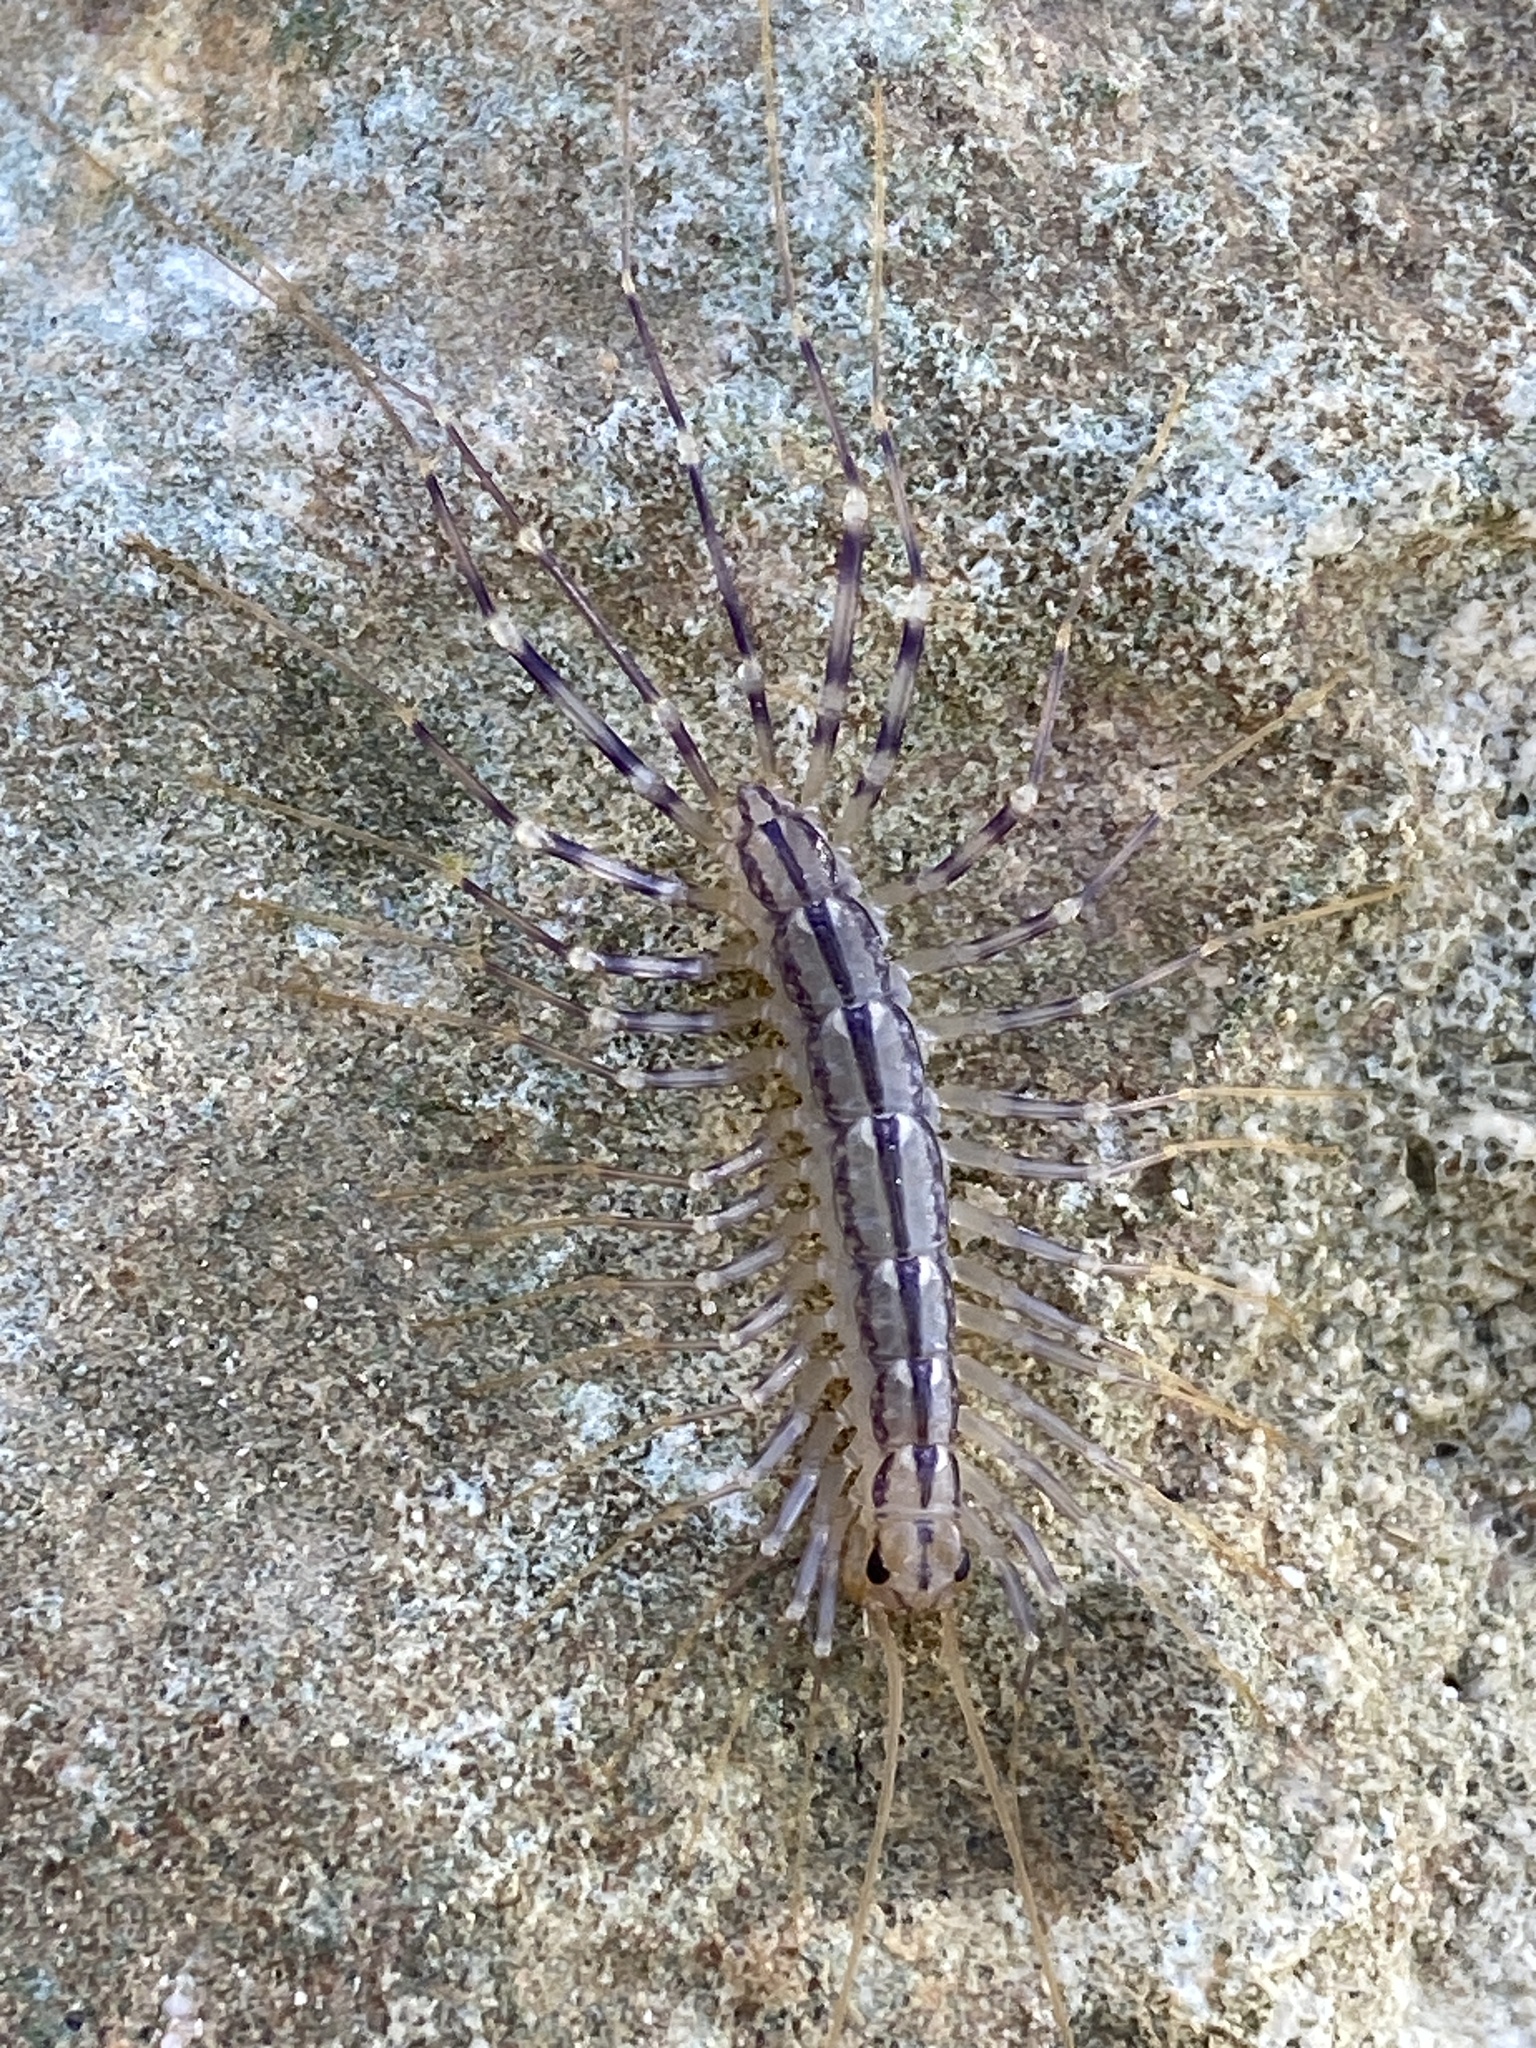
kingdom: Animalia
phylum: Arthropoda
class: Chilopoda
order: Scutigeromorpha
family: Scutigeridae
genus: Scutigera
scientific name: Scutigera coleoptrata
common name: House centipede
